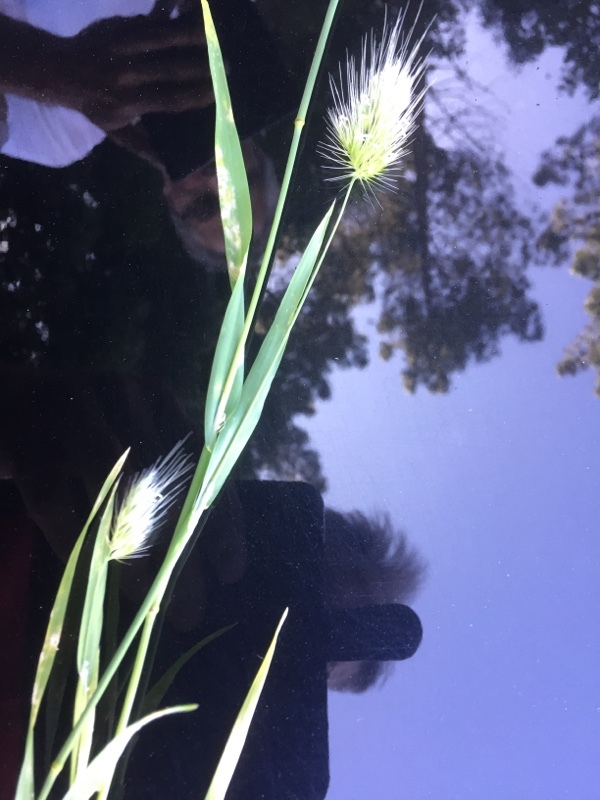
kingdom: Plantae
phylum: Tracheophyta
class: Liliopsida
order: Poales
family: Poaceae
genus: Cynosurus
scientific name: Cynosurus echinatus
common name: Rough dog's-tail
